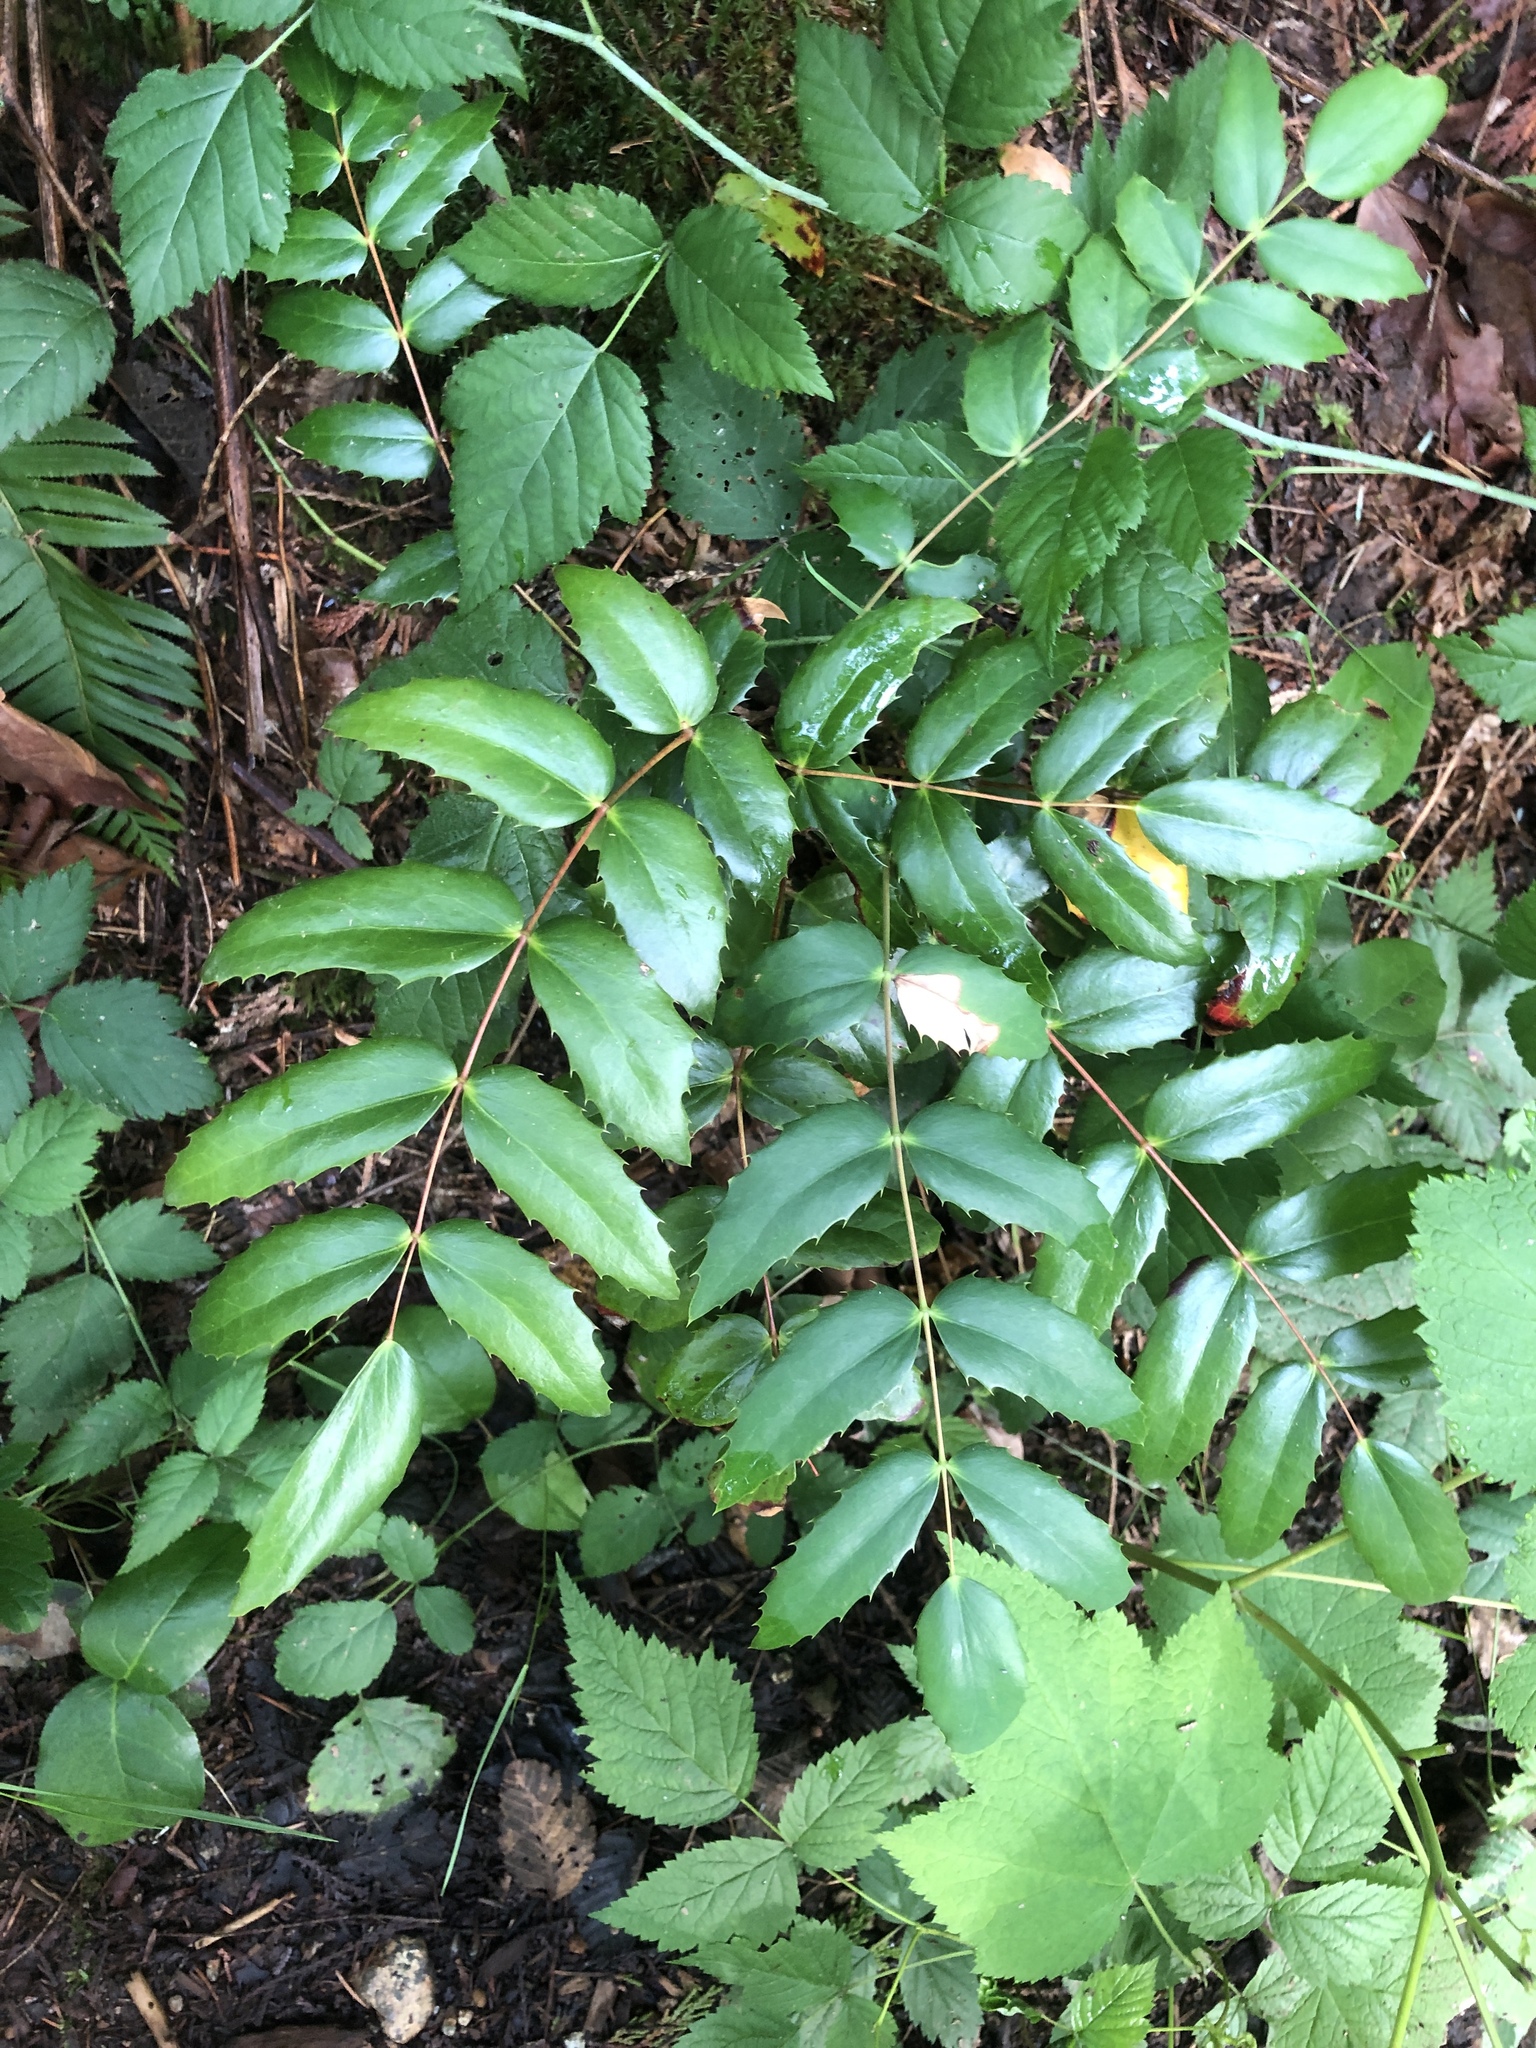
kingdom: Plantae
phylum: Tracheophyta
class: Magnoliopsida
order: Ranunculales
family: Berberidaceae
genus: Mahonia
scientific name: Mahonia nervosa
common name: Cascade oregon-grape
